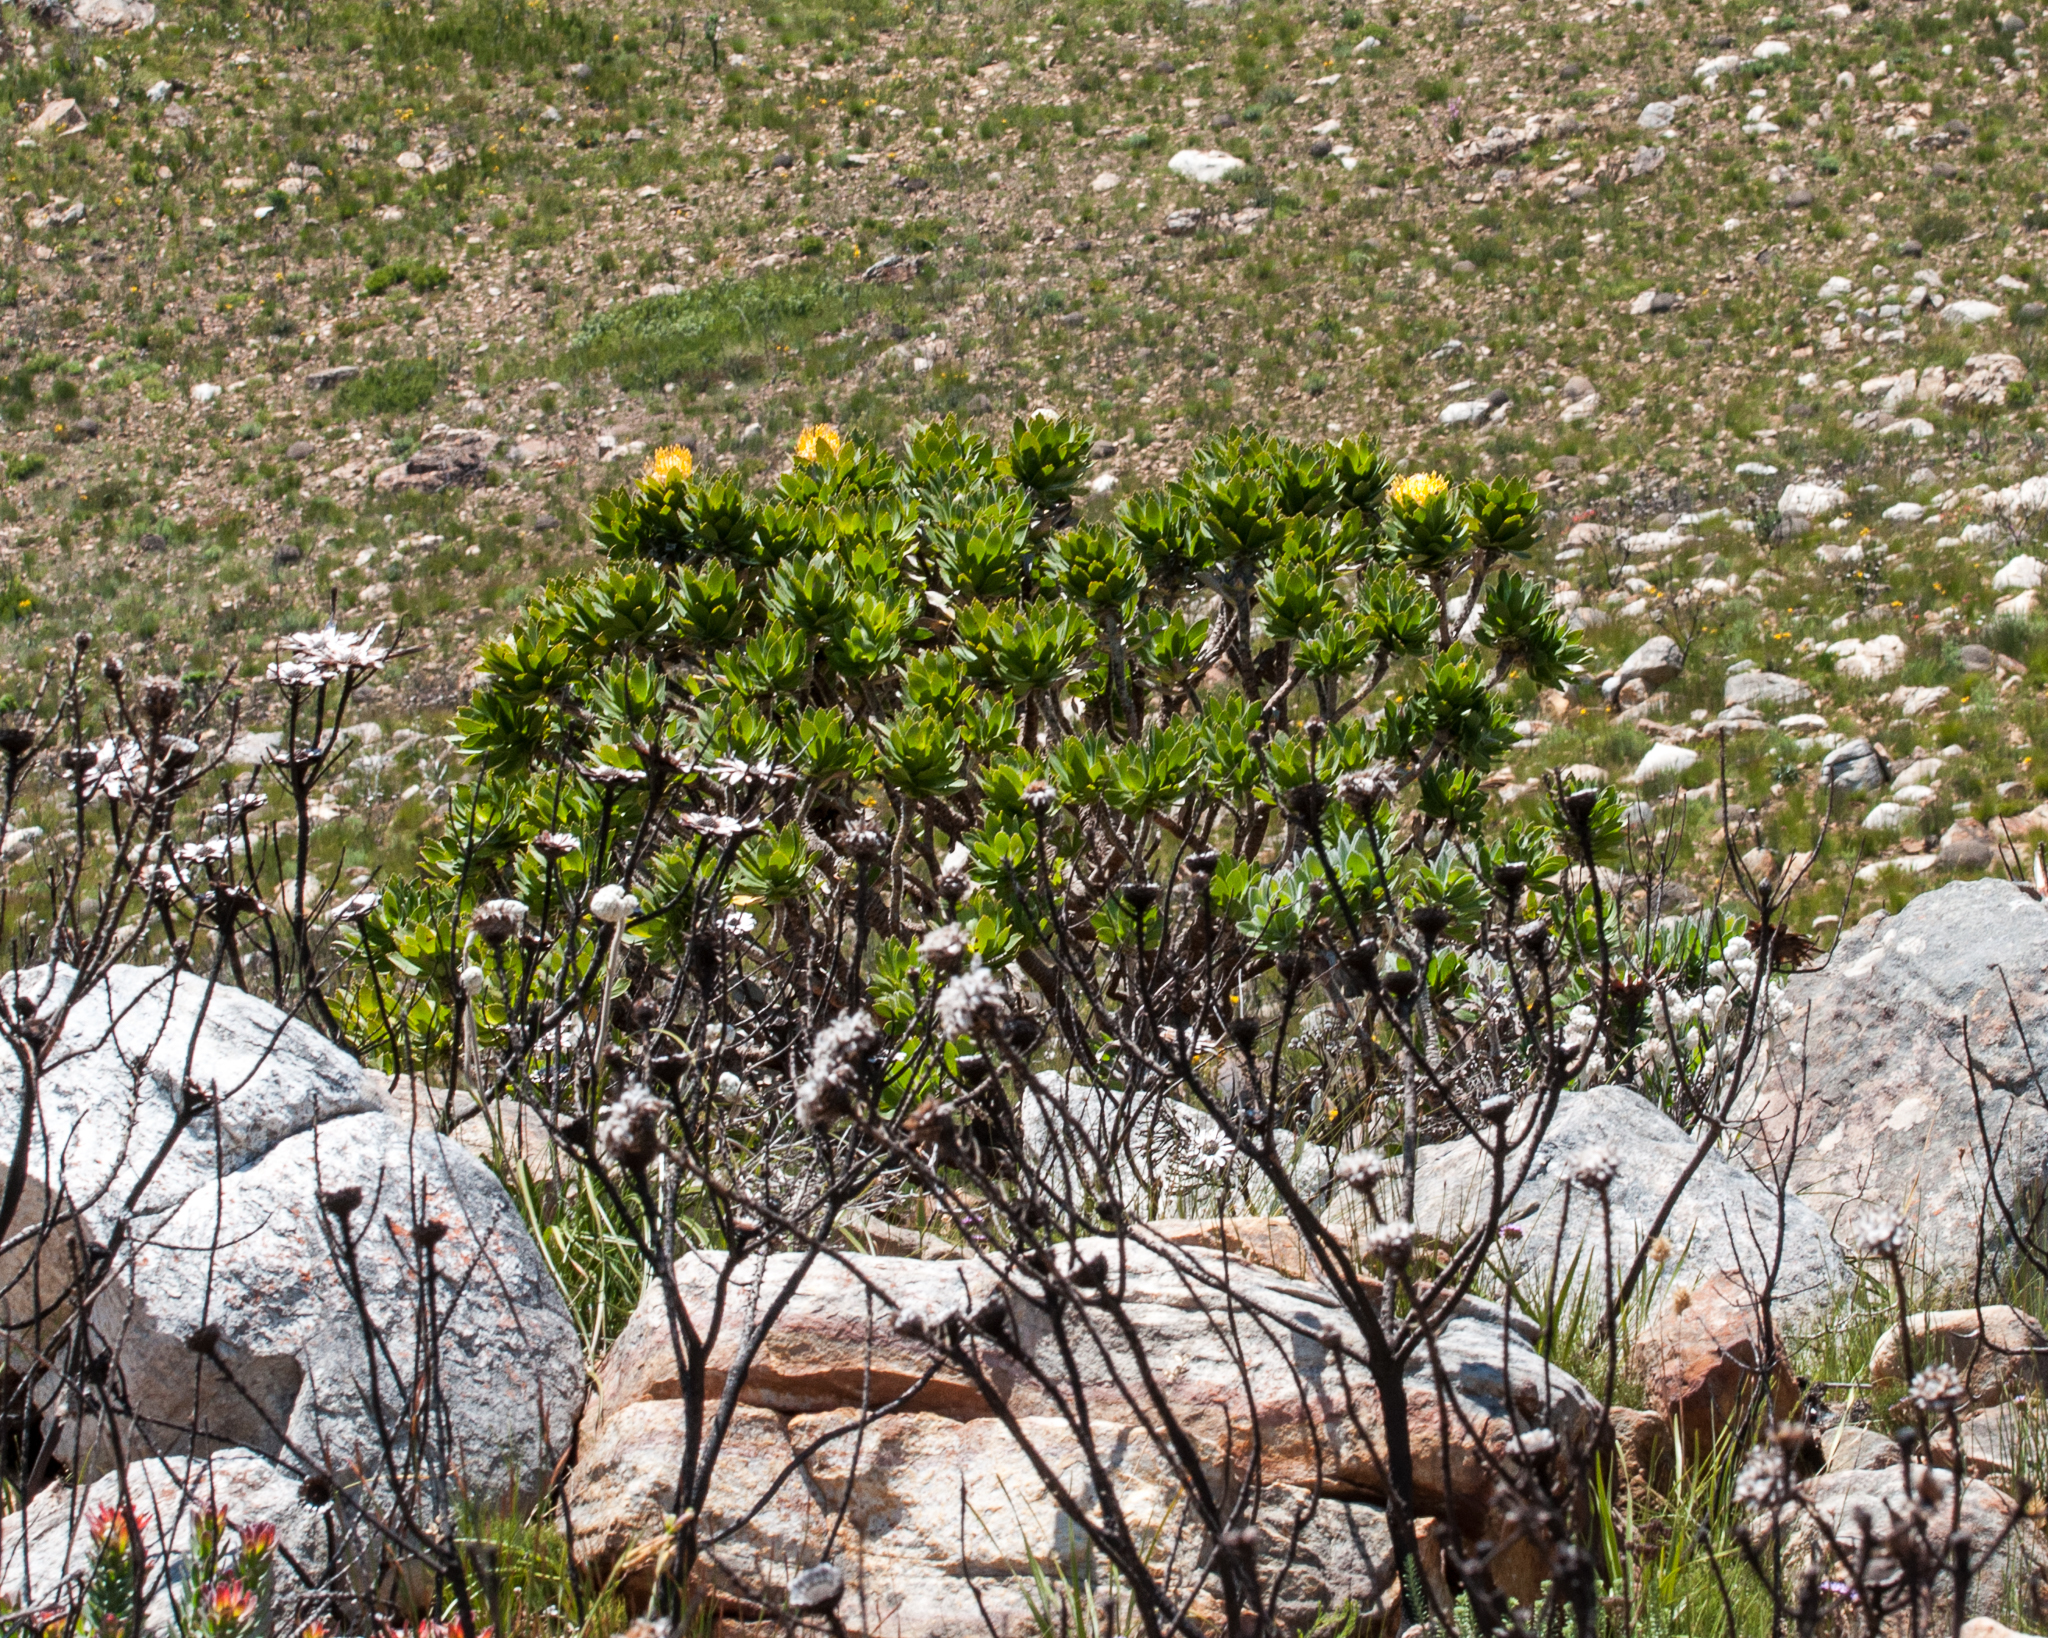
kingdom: Plantae
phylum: Tracheophyta
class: Magnoliopsida
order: Proteales
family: Proteaceae
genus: Leucospermum
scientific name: Leucospermum conocarpodendron
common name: Tree pincushion
